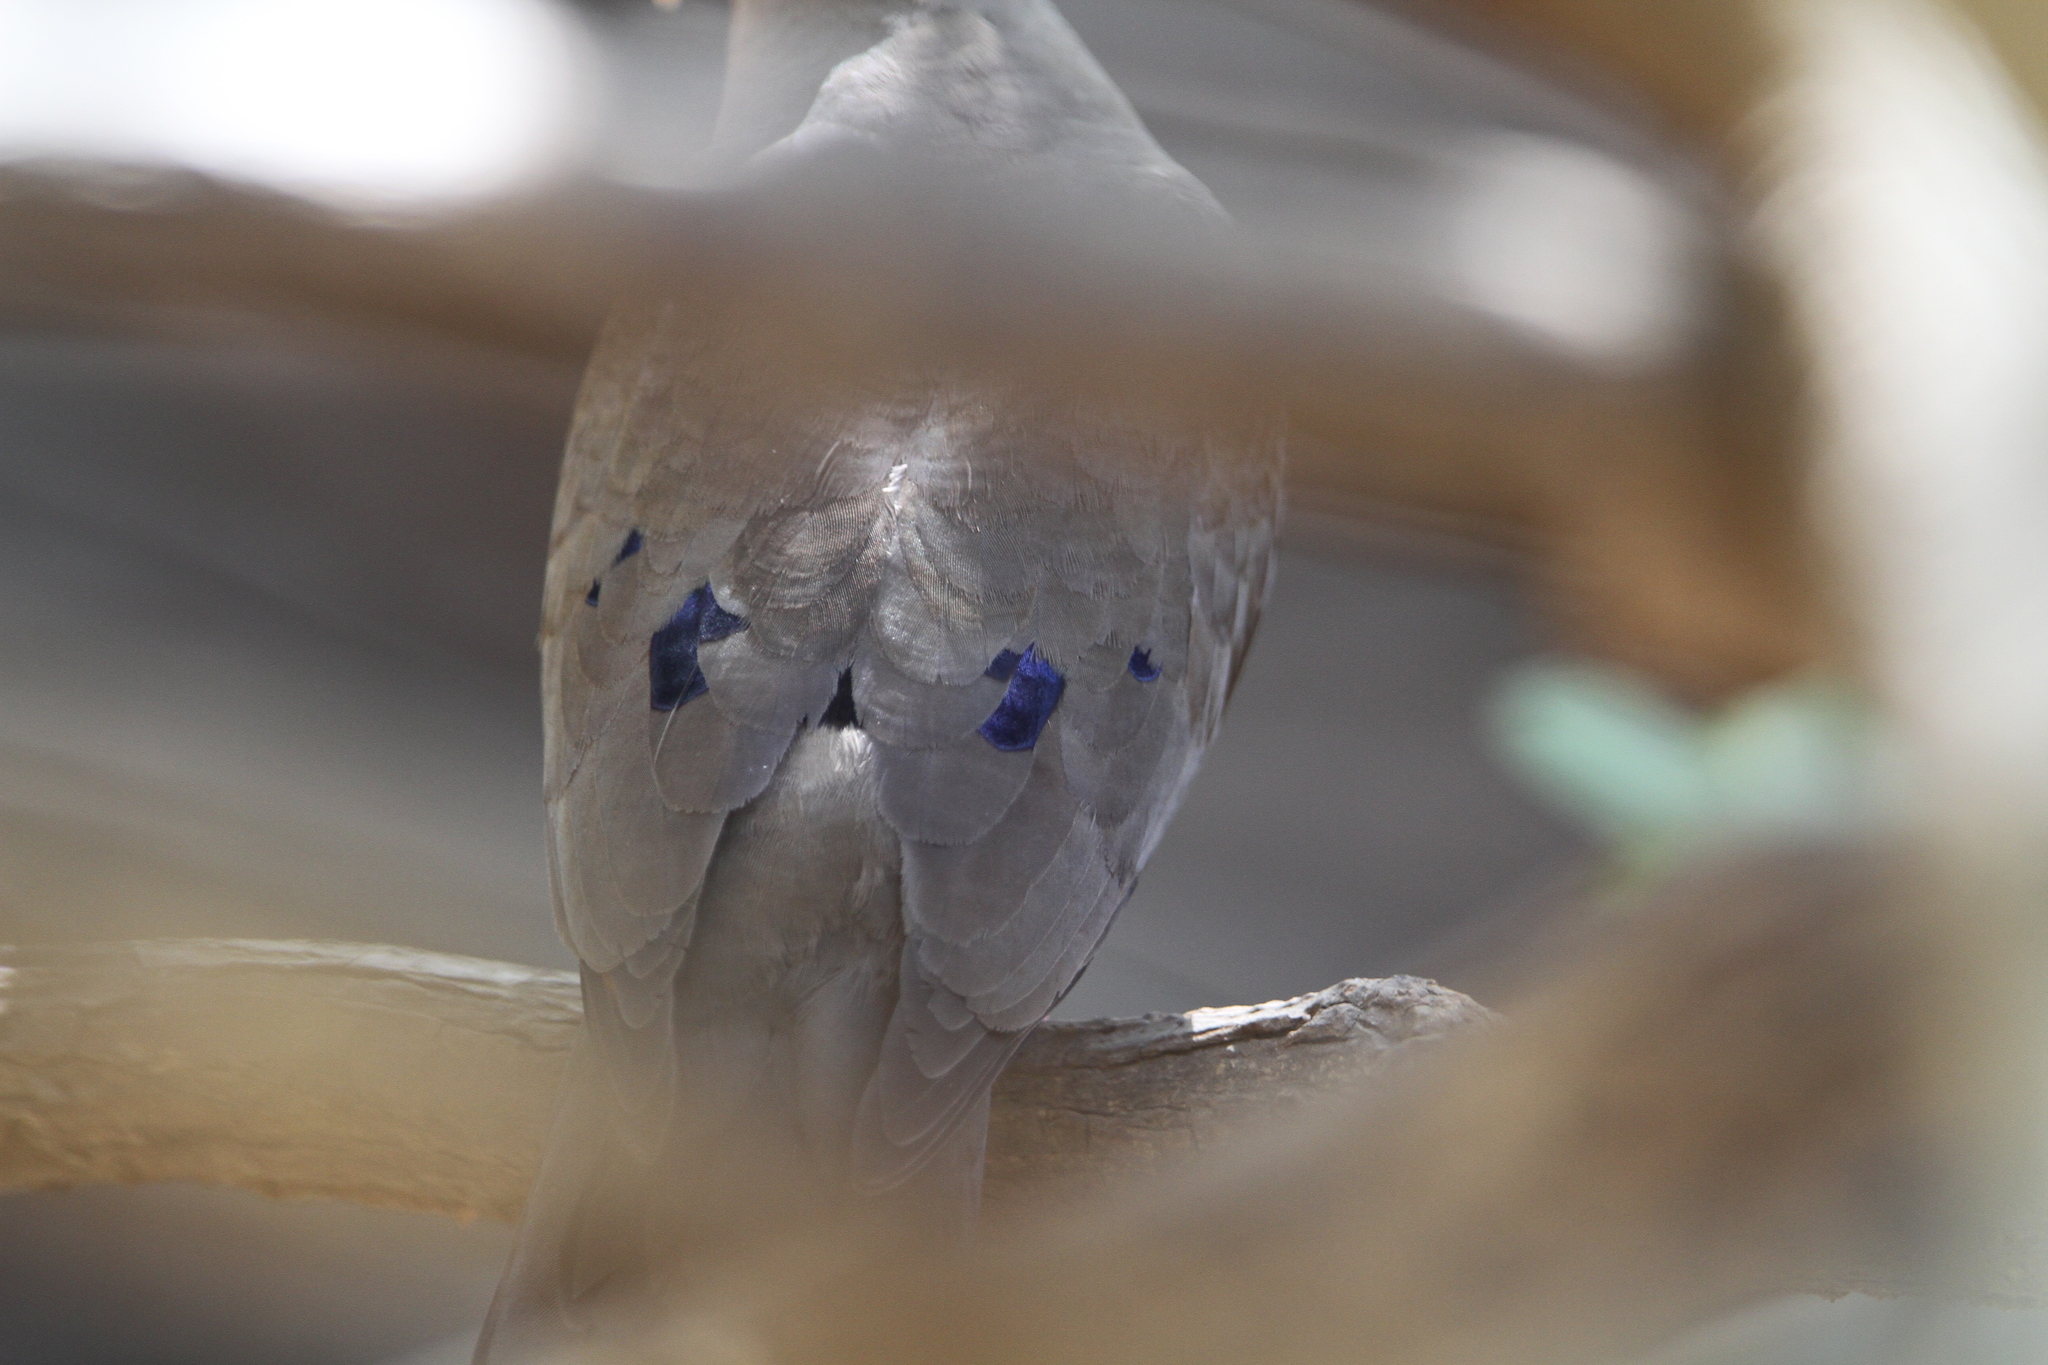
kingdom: Animalia
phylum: Chordata
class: Aves
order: Columbiformes
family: Columbidae
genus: Turtur
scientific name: Turtur afer
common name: Blue-spotted wood dove
